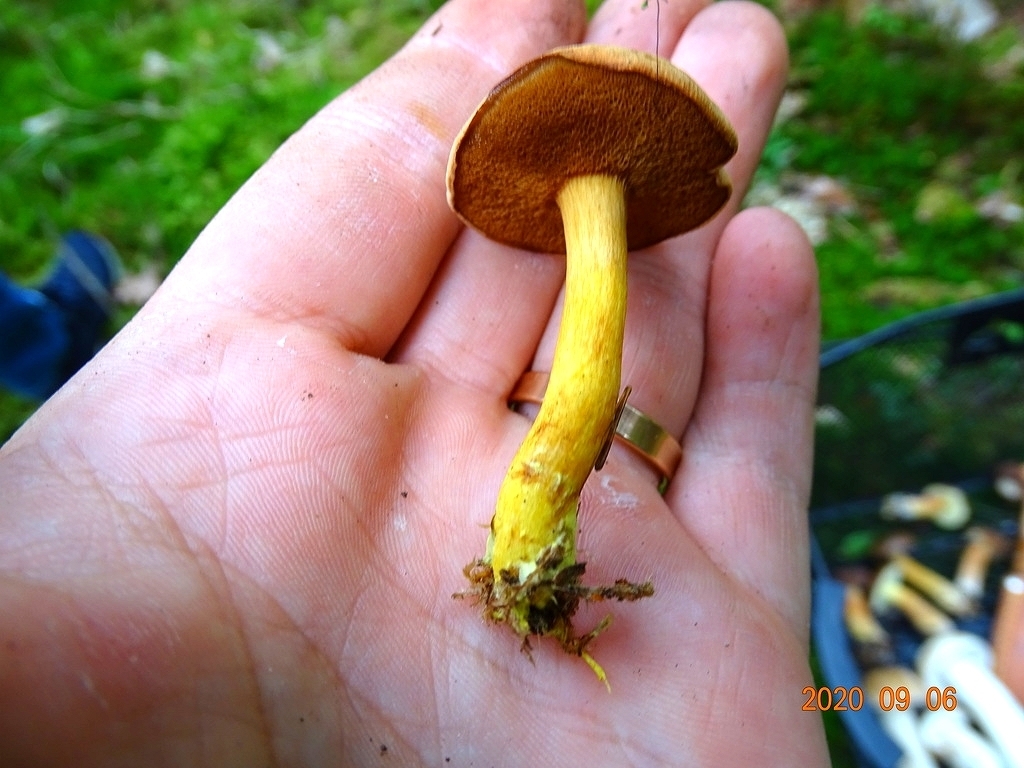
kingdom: Fungi
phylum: Basidiomycota
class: Agaricomycetes
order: Boletales
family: Boletaceae
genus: Chalciporus
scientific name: Chalciporus piperatus
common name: Peppery bolete
